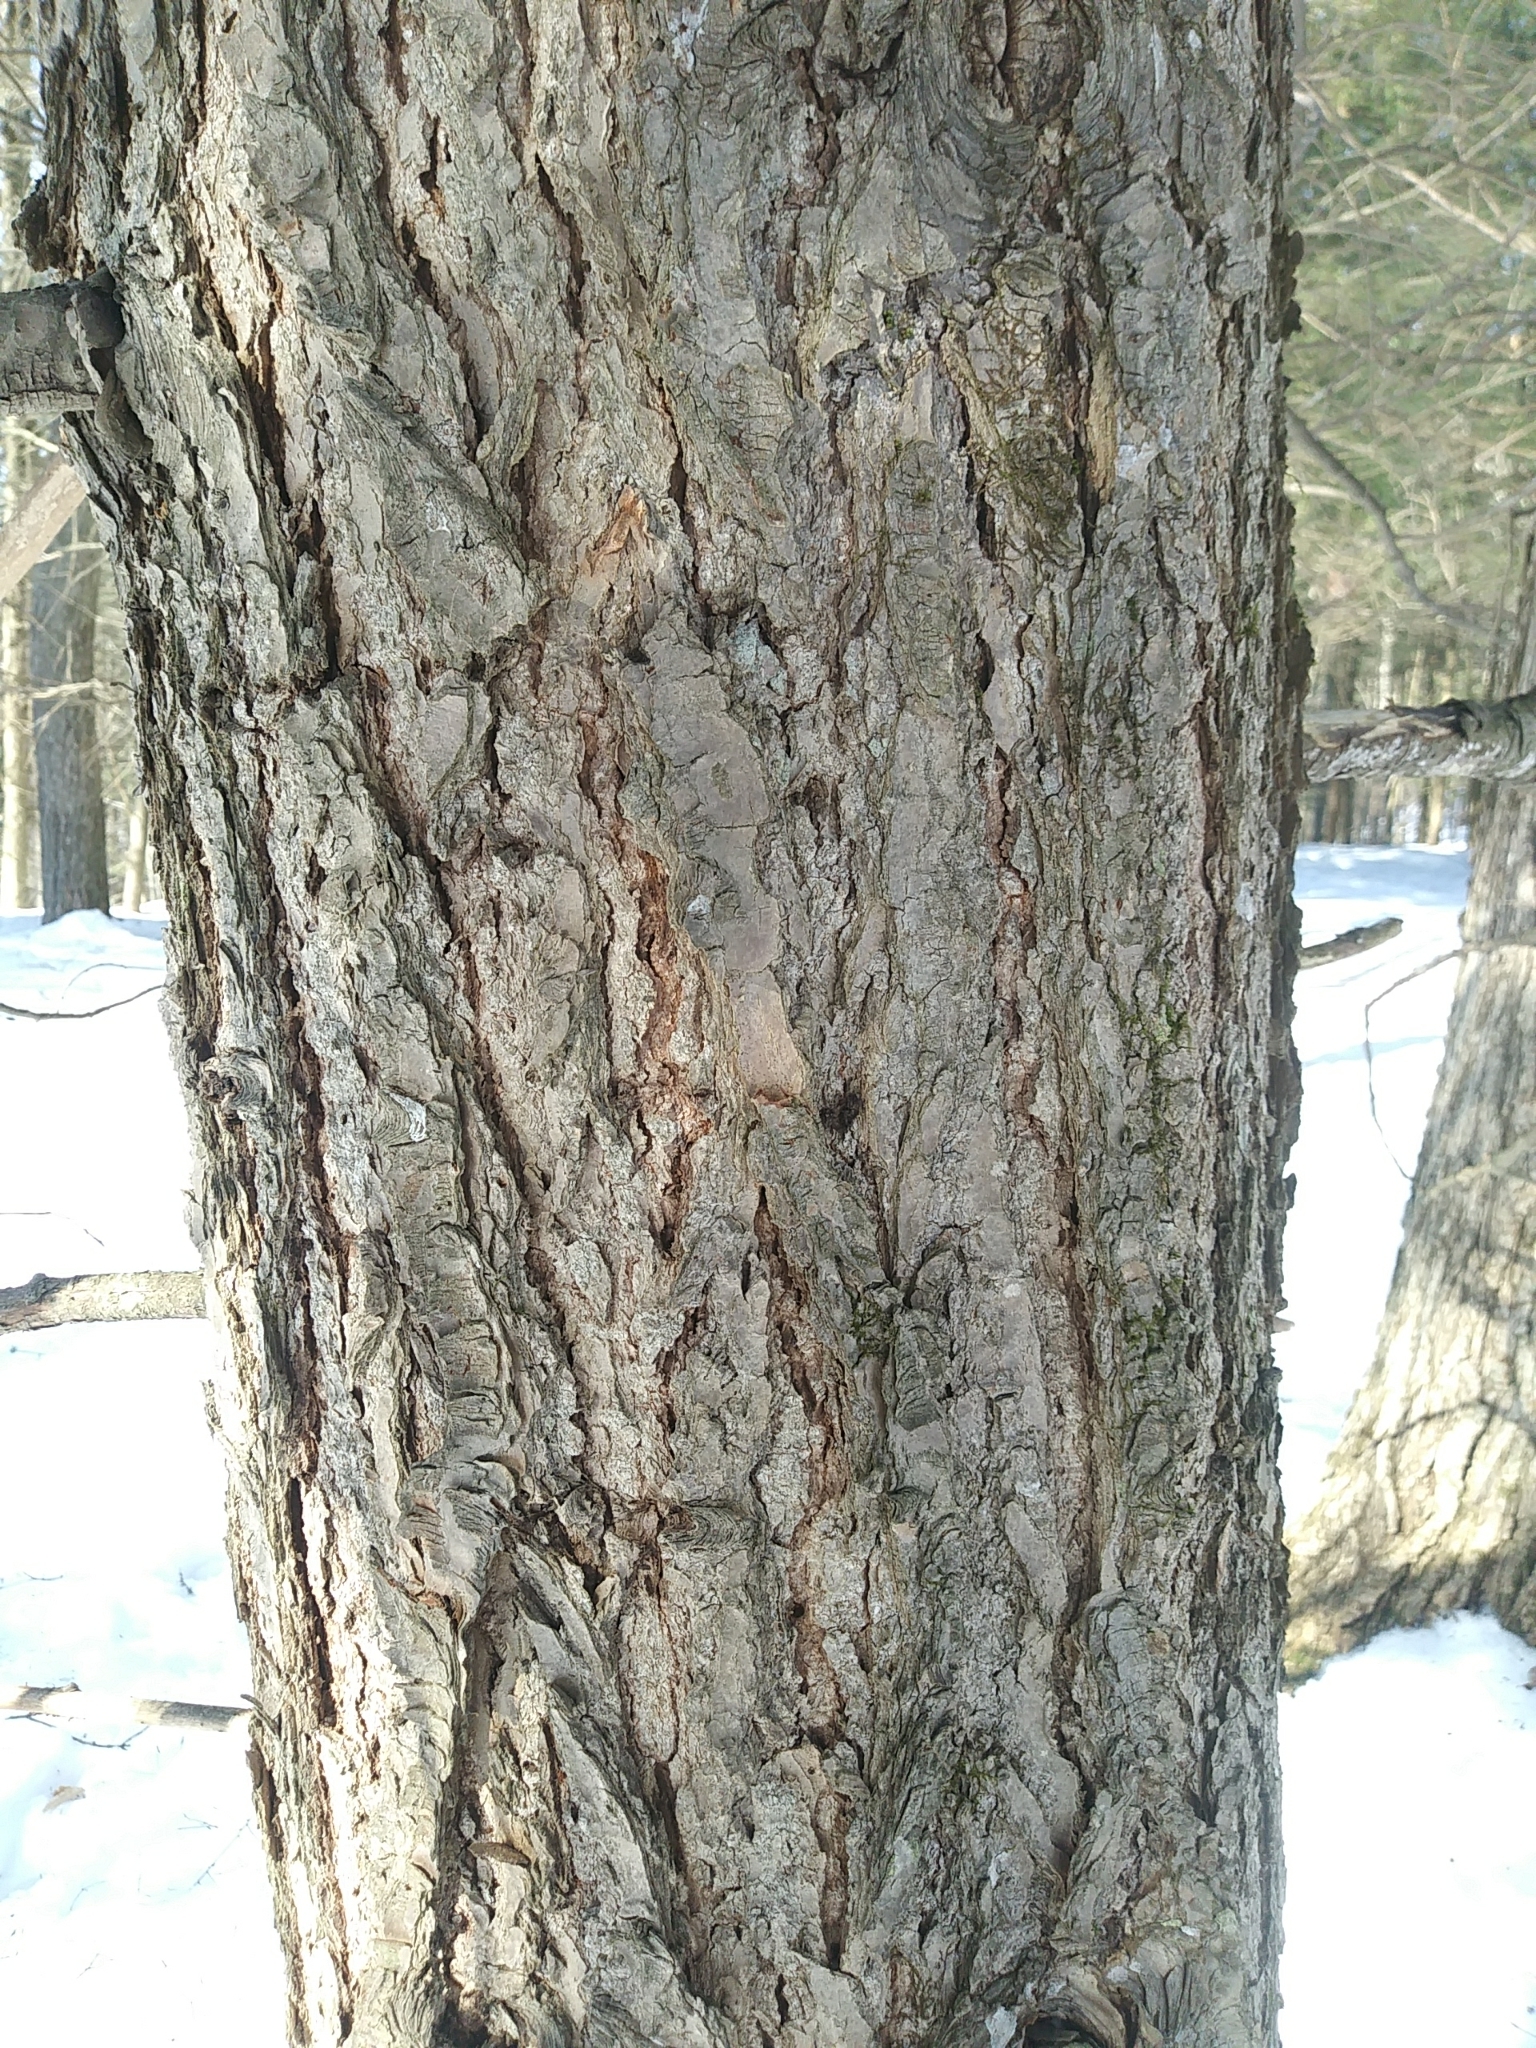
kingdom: Plantae
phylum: Tracheophyta
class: Pinopsida
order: Pinales
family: Pinaceae
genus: Tsuga
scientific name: Tsuga canadensis
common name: Eastern hemlock
